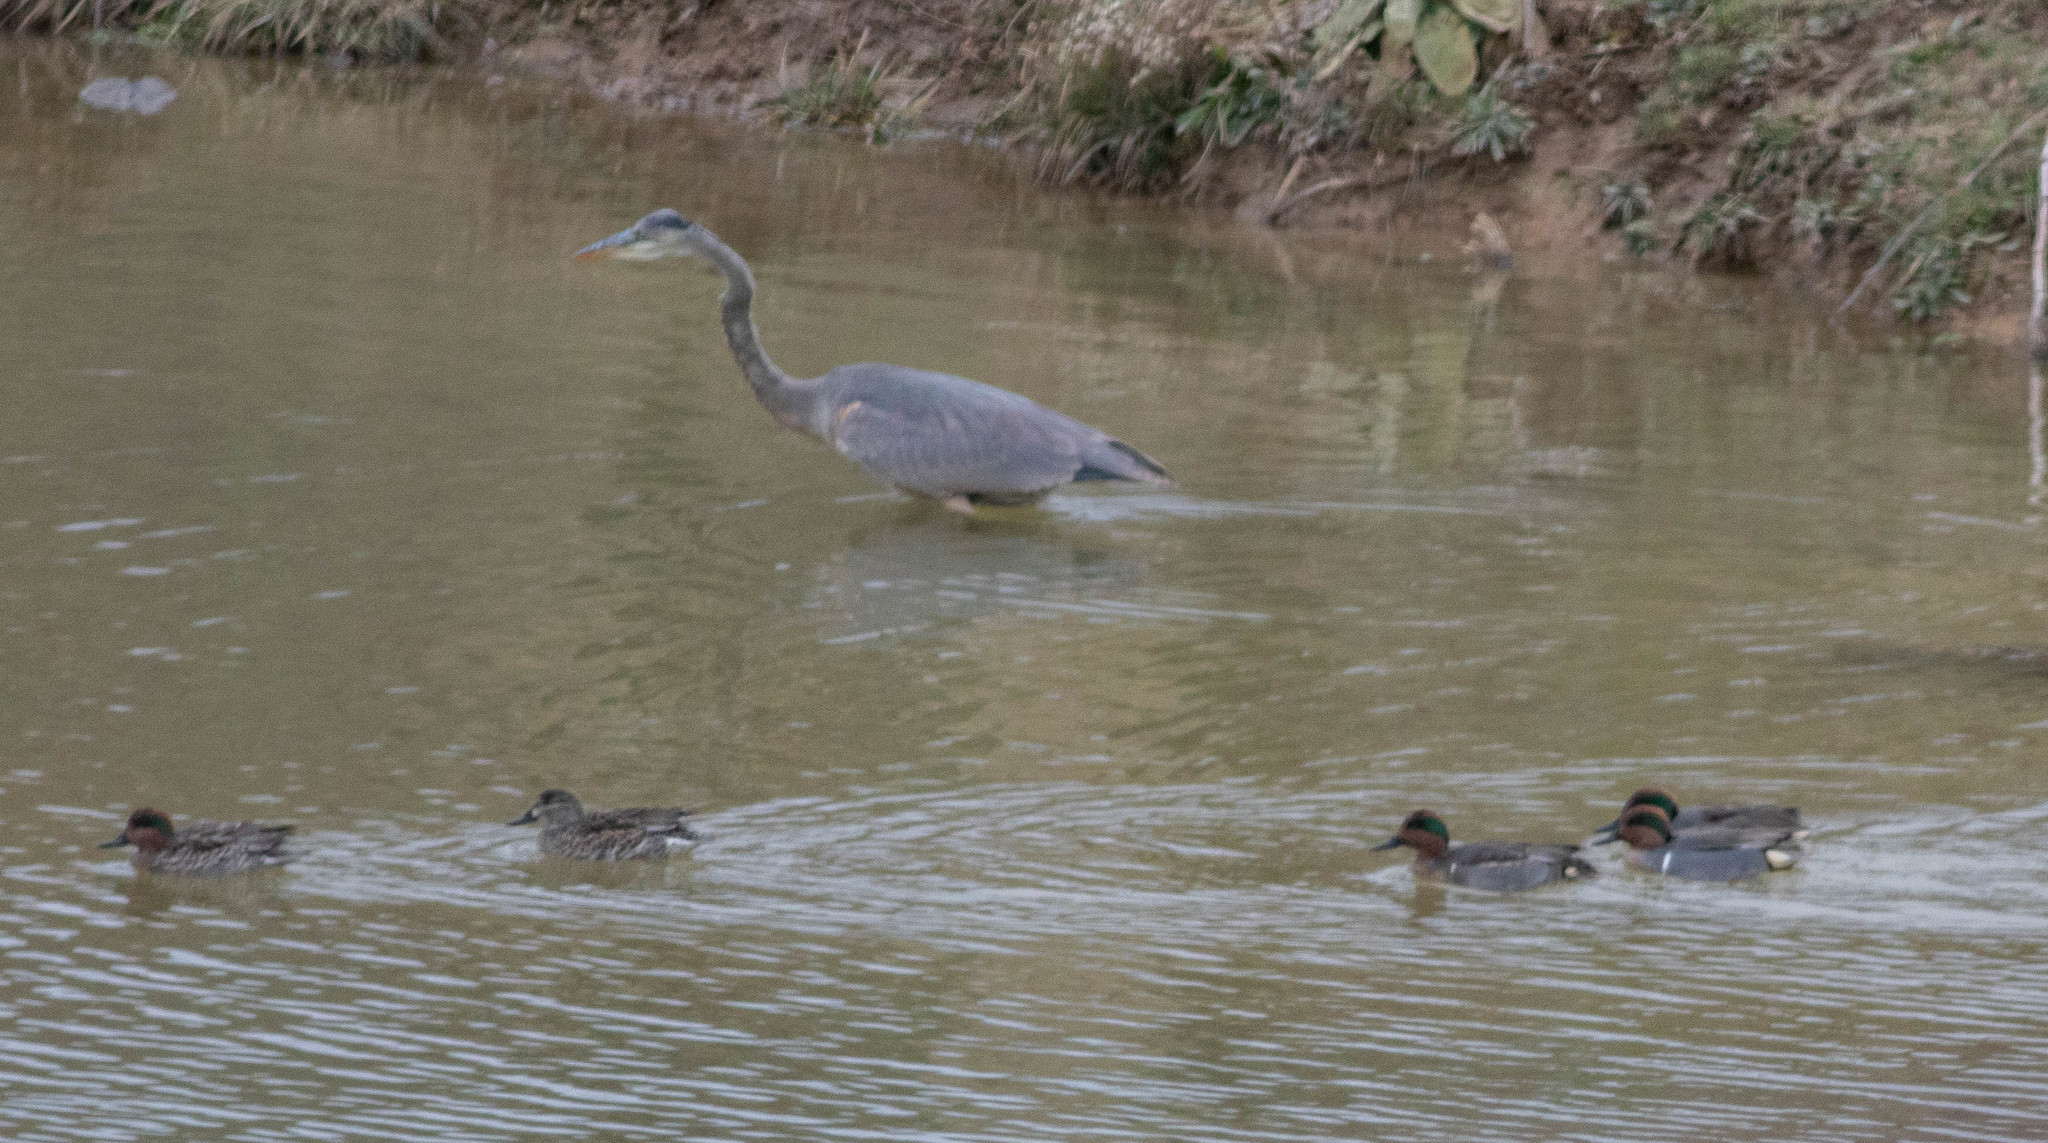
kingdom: Animalia
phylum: Chordata
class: Aves
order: Pelecaniformes
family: Ardeidae
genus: Ardea
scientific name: Ardea herodias
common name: Great blue heron
